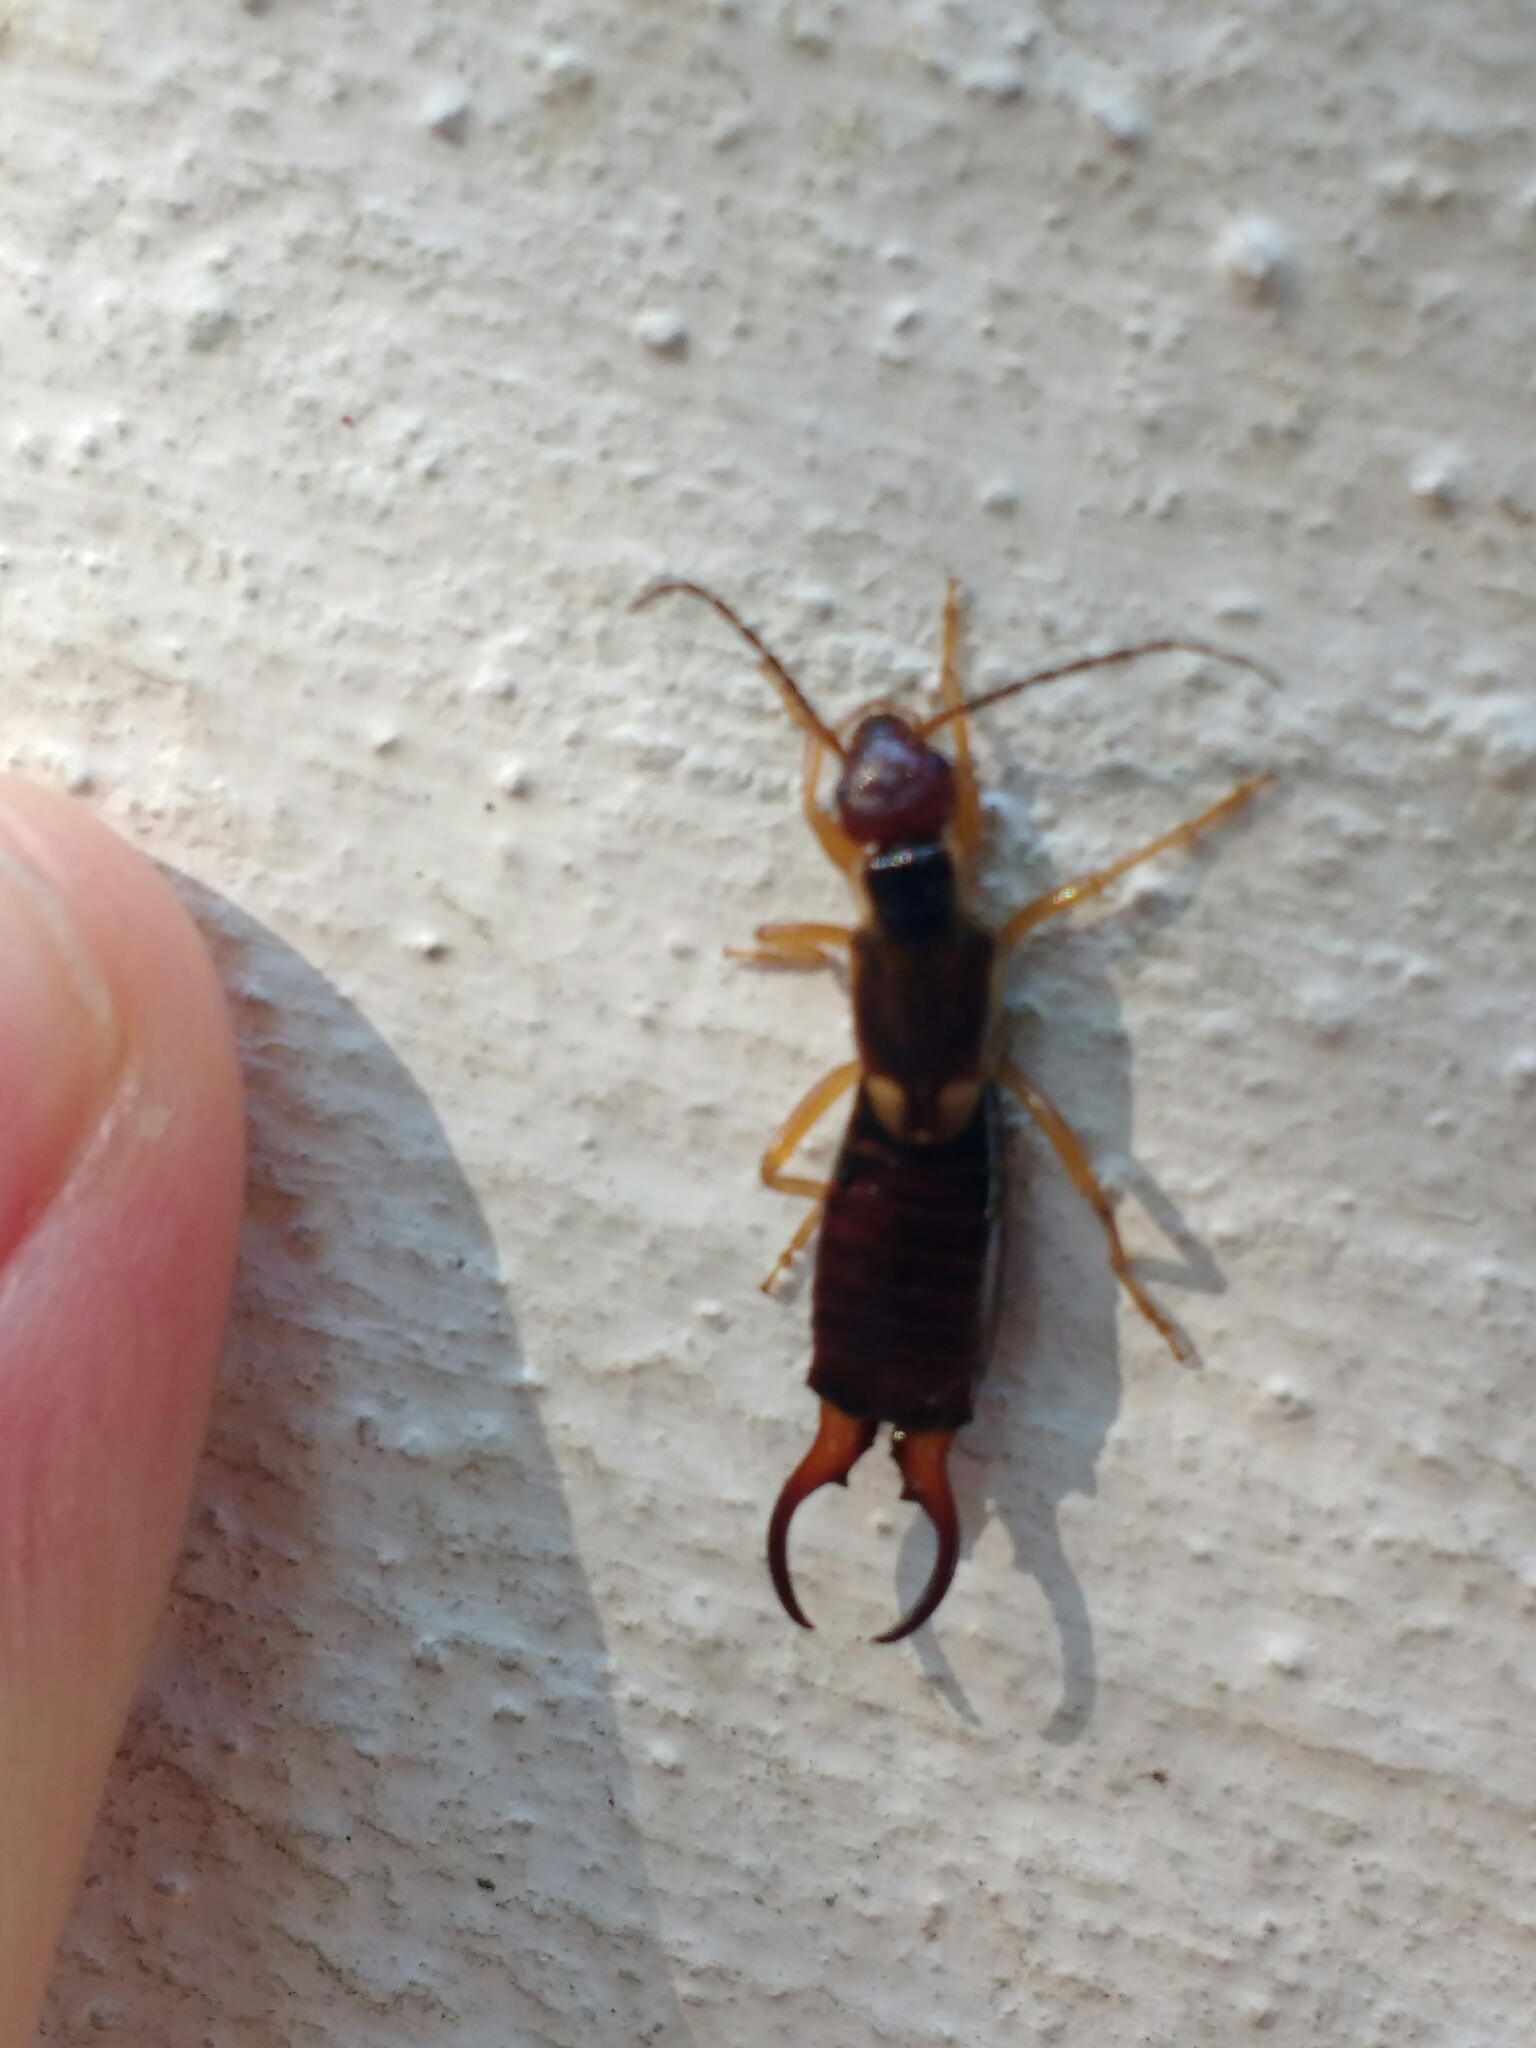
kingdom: Animalia
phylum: Arthropoda
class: Insecta
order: Dermaptera
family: Forficulidae
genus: Forficula
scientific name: Forficula
